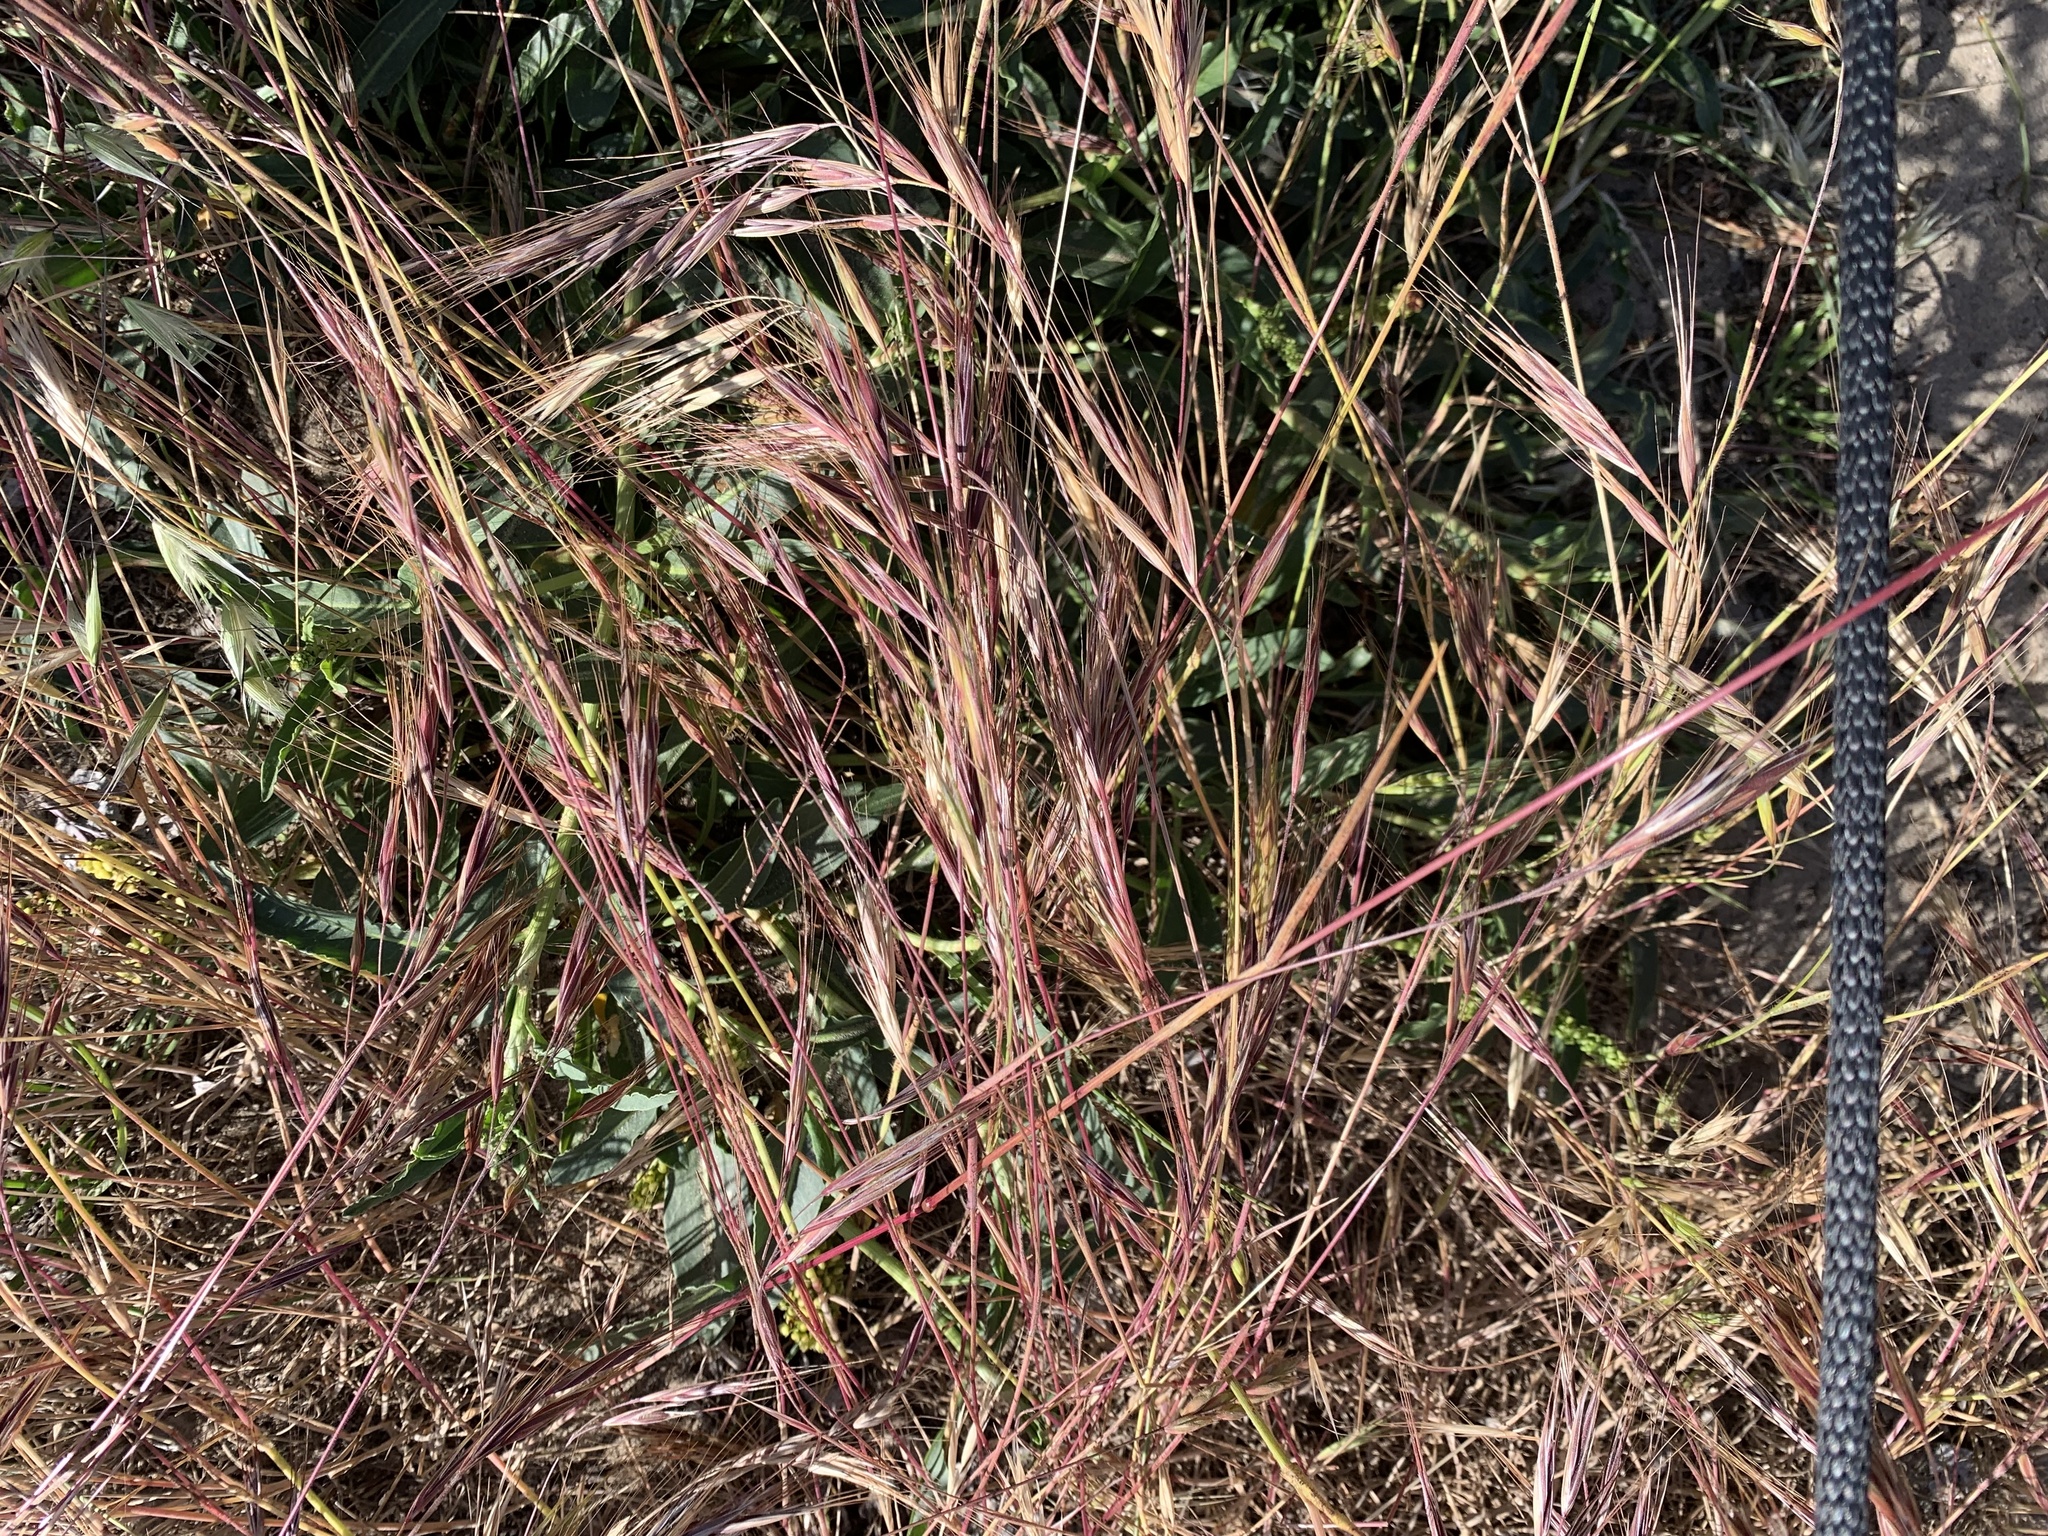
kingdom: Plantae
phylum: Tracheophyta
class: Liliopsida
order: Poales
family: Poaceae
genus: Bromus
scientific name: Bromus diandrus
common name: Ripgut brome
